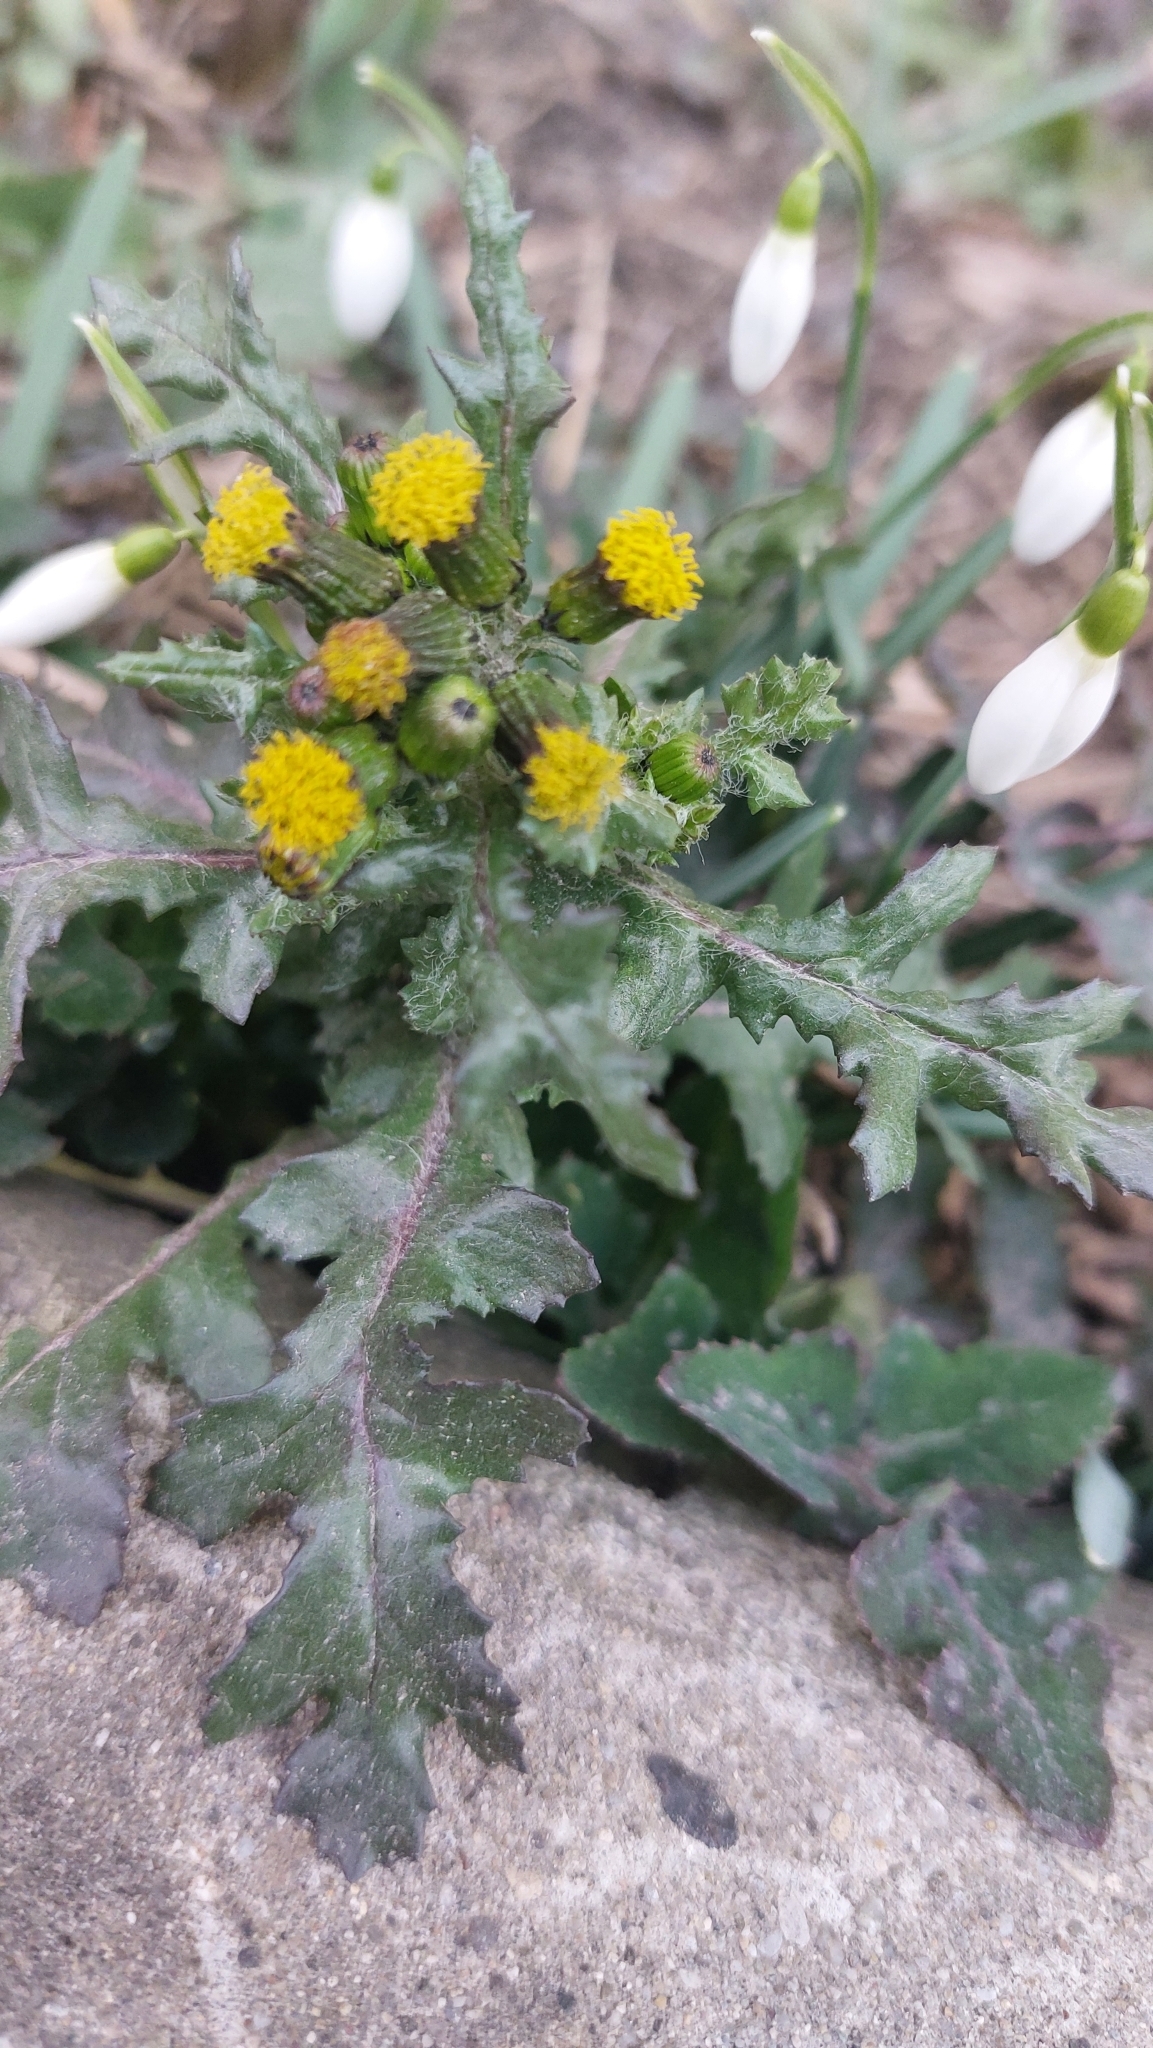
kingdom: Plantae
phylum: Tracheophyta
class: Magnoliopsida
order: Asterales
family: Asteraceae
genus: Senecio
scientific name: Senecio vulgaris
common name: Old-man-in-the-spring
